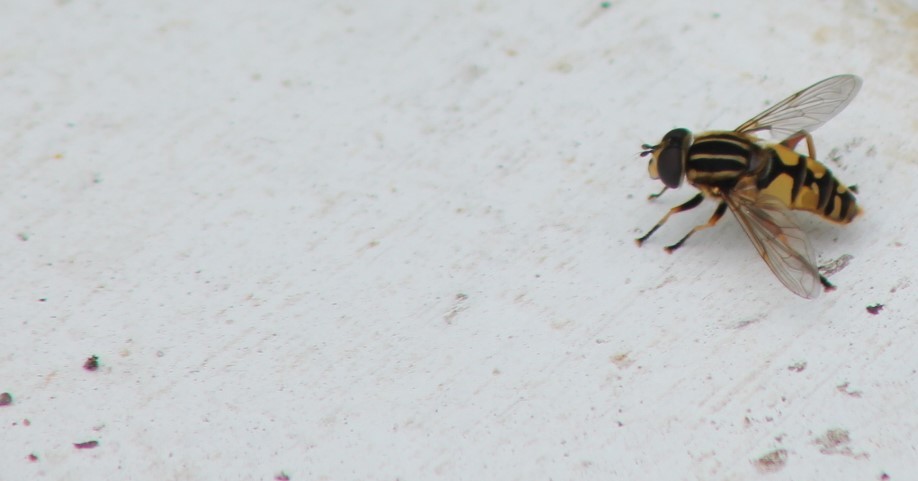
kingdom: Animalia
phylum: Arthropoda
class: Insecta
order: Diptera
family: Syrphidae
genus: Helophilus
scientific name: Helophilus pendulus
